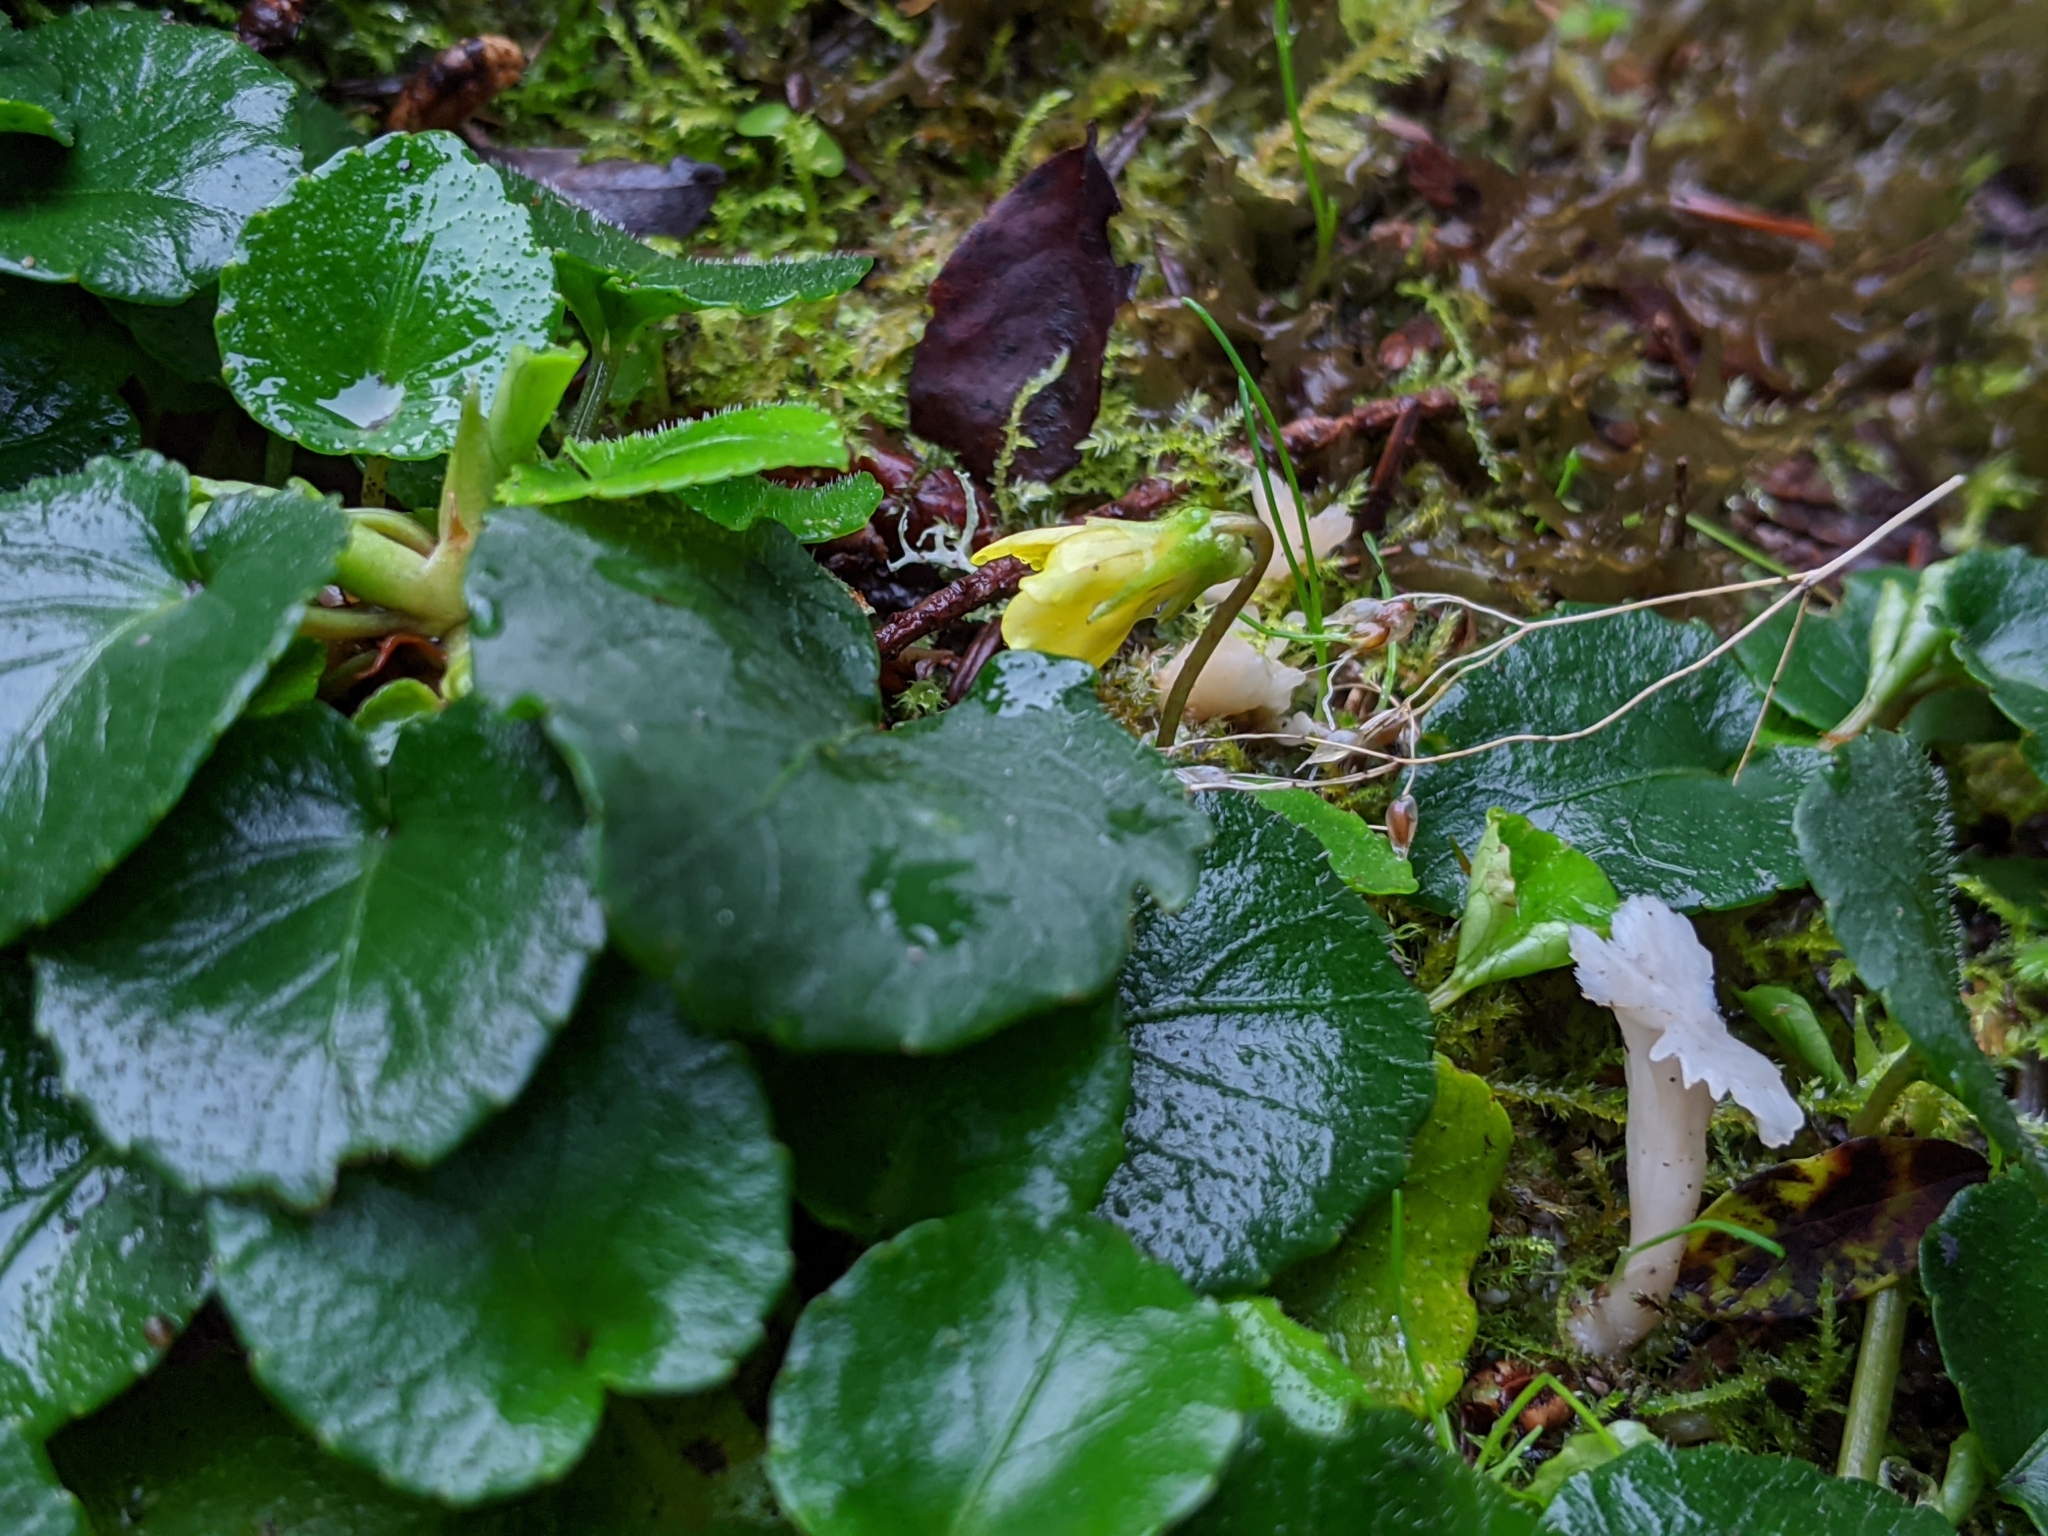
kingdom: Plantae
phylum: Tracheophyta
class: Magnoliopsida
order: Malpighiales
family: Violaceae
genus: Viola
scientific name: Viola sempervirens
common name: Evergreen violet
